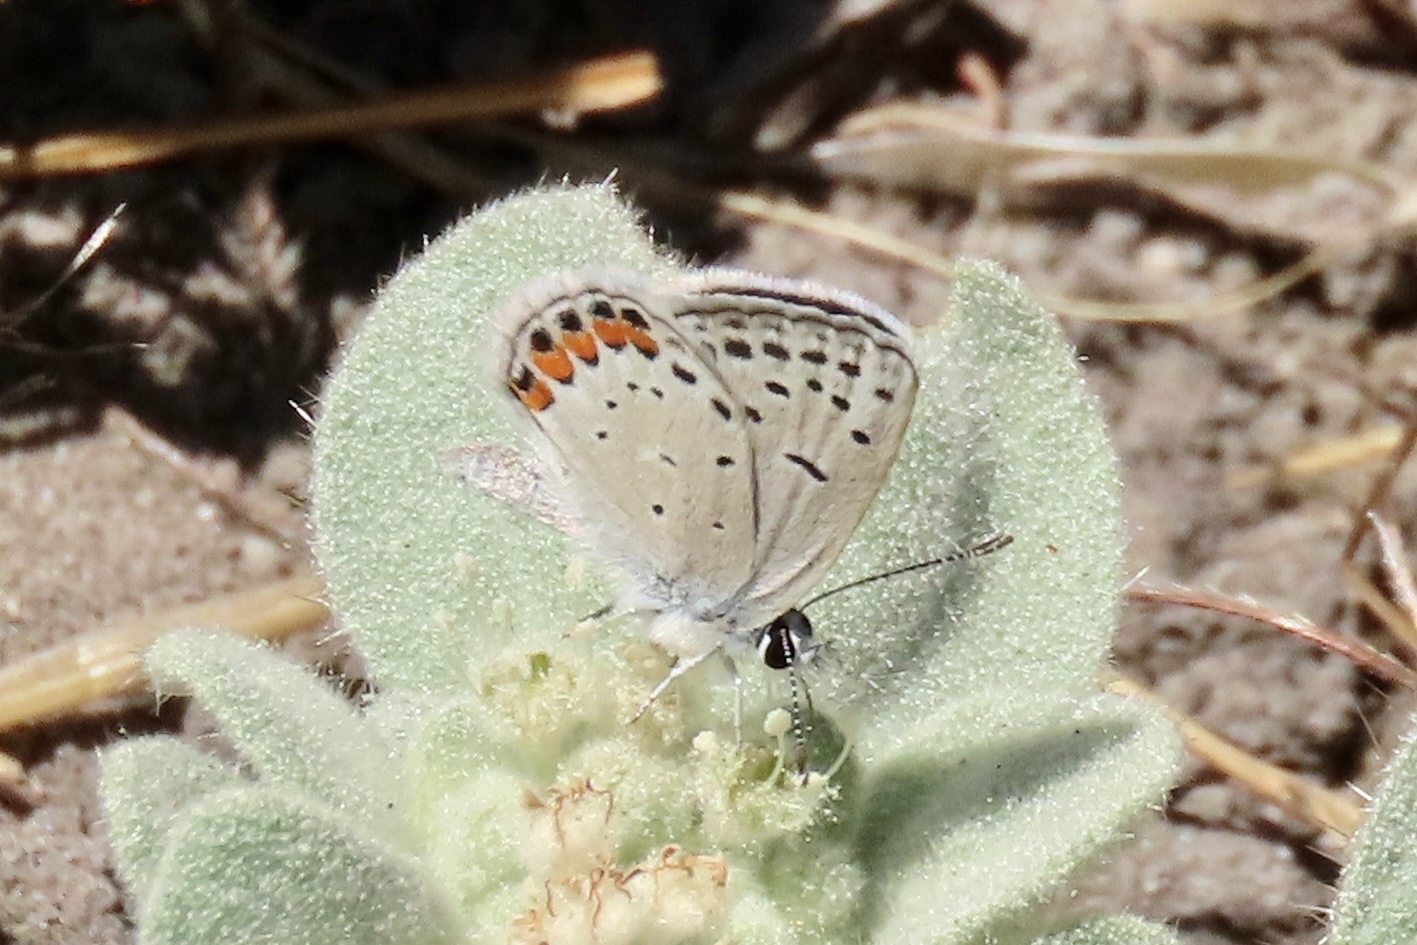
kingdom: Animalia
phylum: Arthropoda
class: Insecta
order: Lepidoptera
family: Lycaenidae
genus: Icaricia
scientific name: Icaricia acmon
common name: Acmon blue
